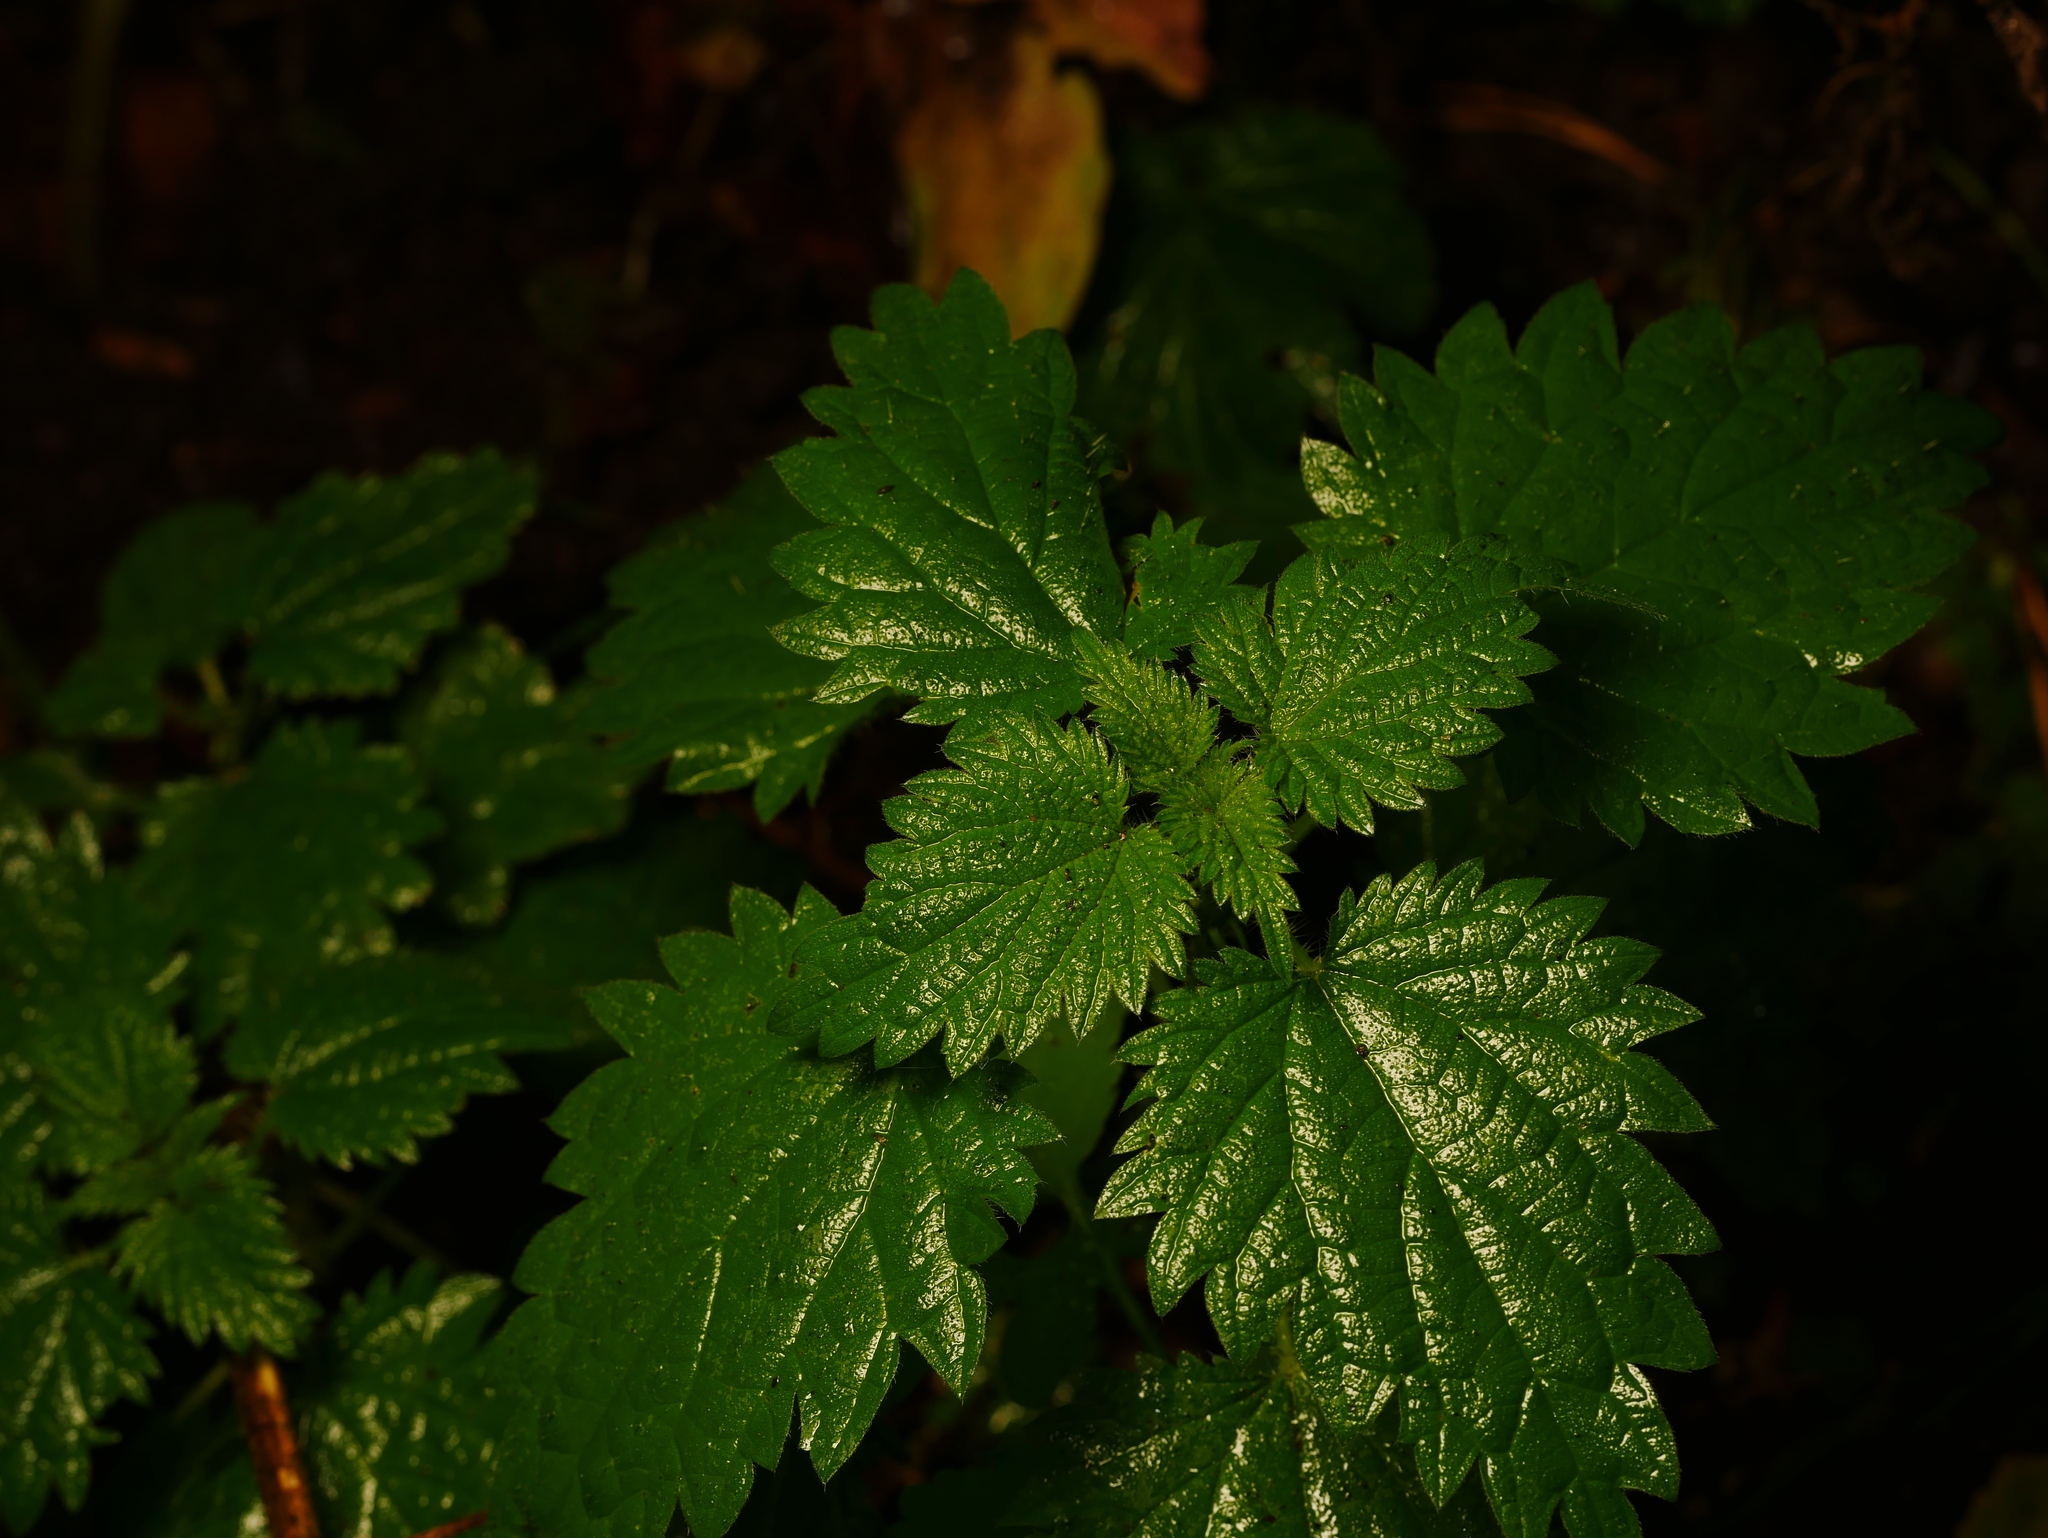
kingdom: Plantae
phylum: Tracheophyta
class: Magnoliopsida
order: Rosales
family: Urticaceae
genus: Urtica
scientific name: Urtica dioica
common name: Common nettle
